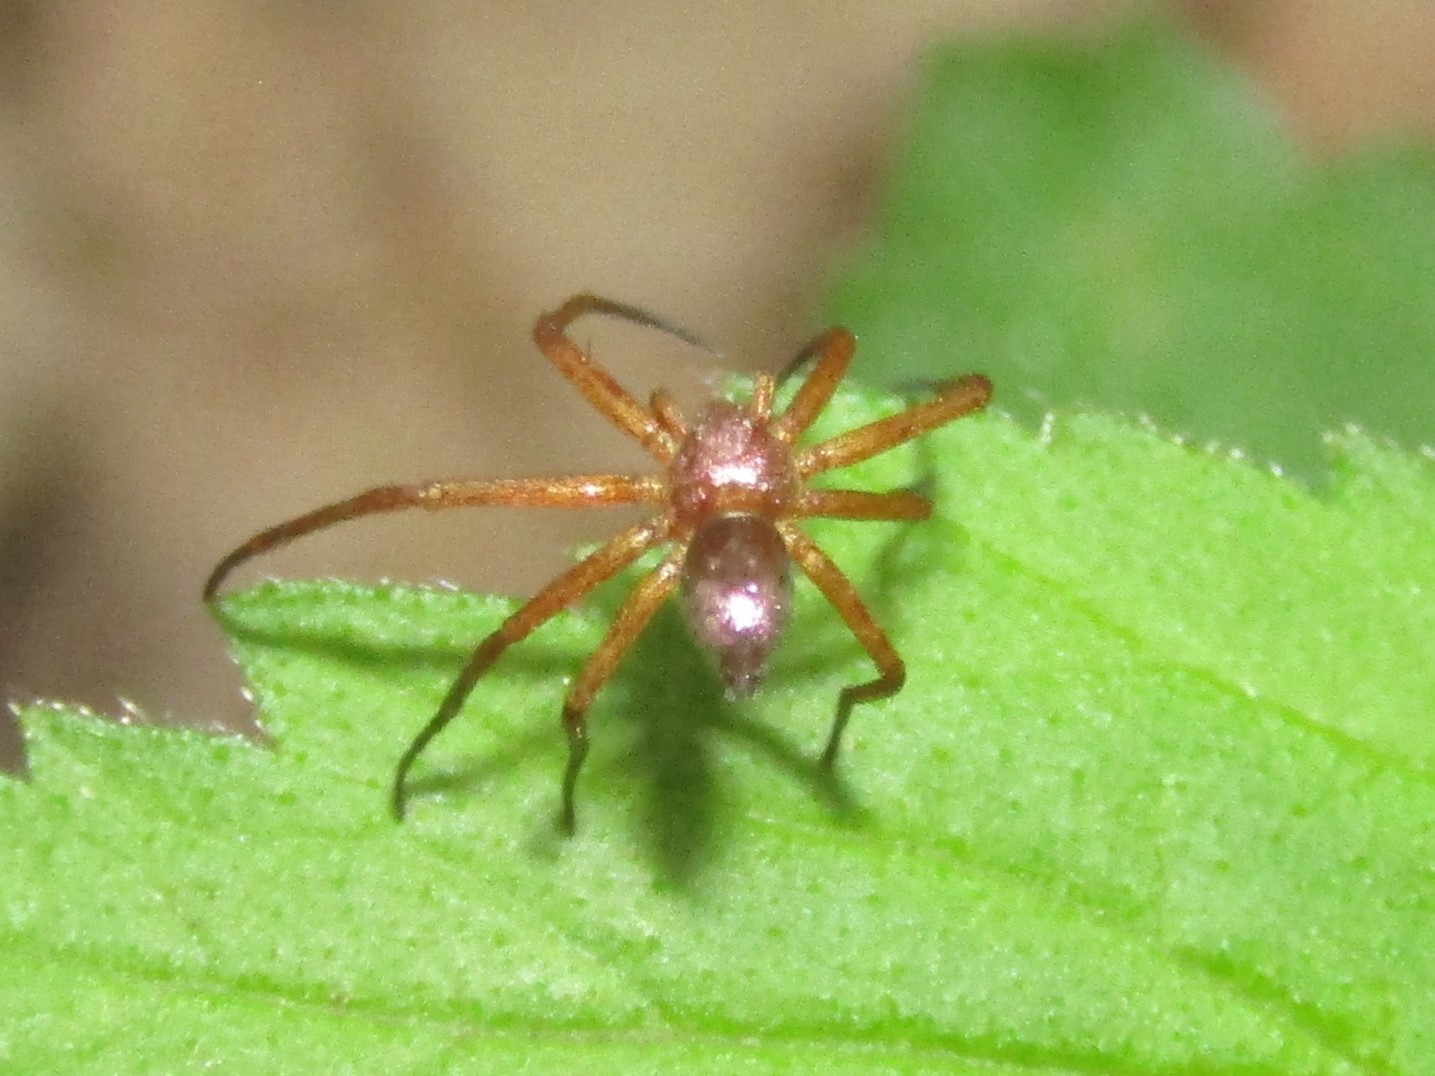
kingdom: Animalia
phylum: Arthropoda
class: Arachnida
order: Araneae
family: Philodromidae
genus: Philodromus
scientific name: Philodromus marxi
